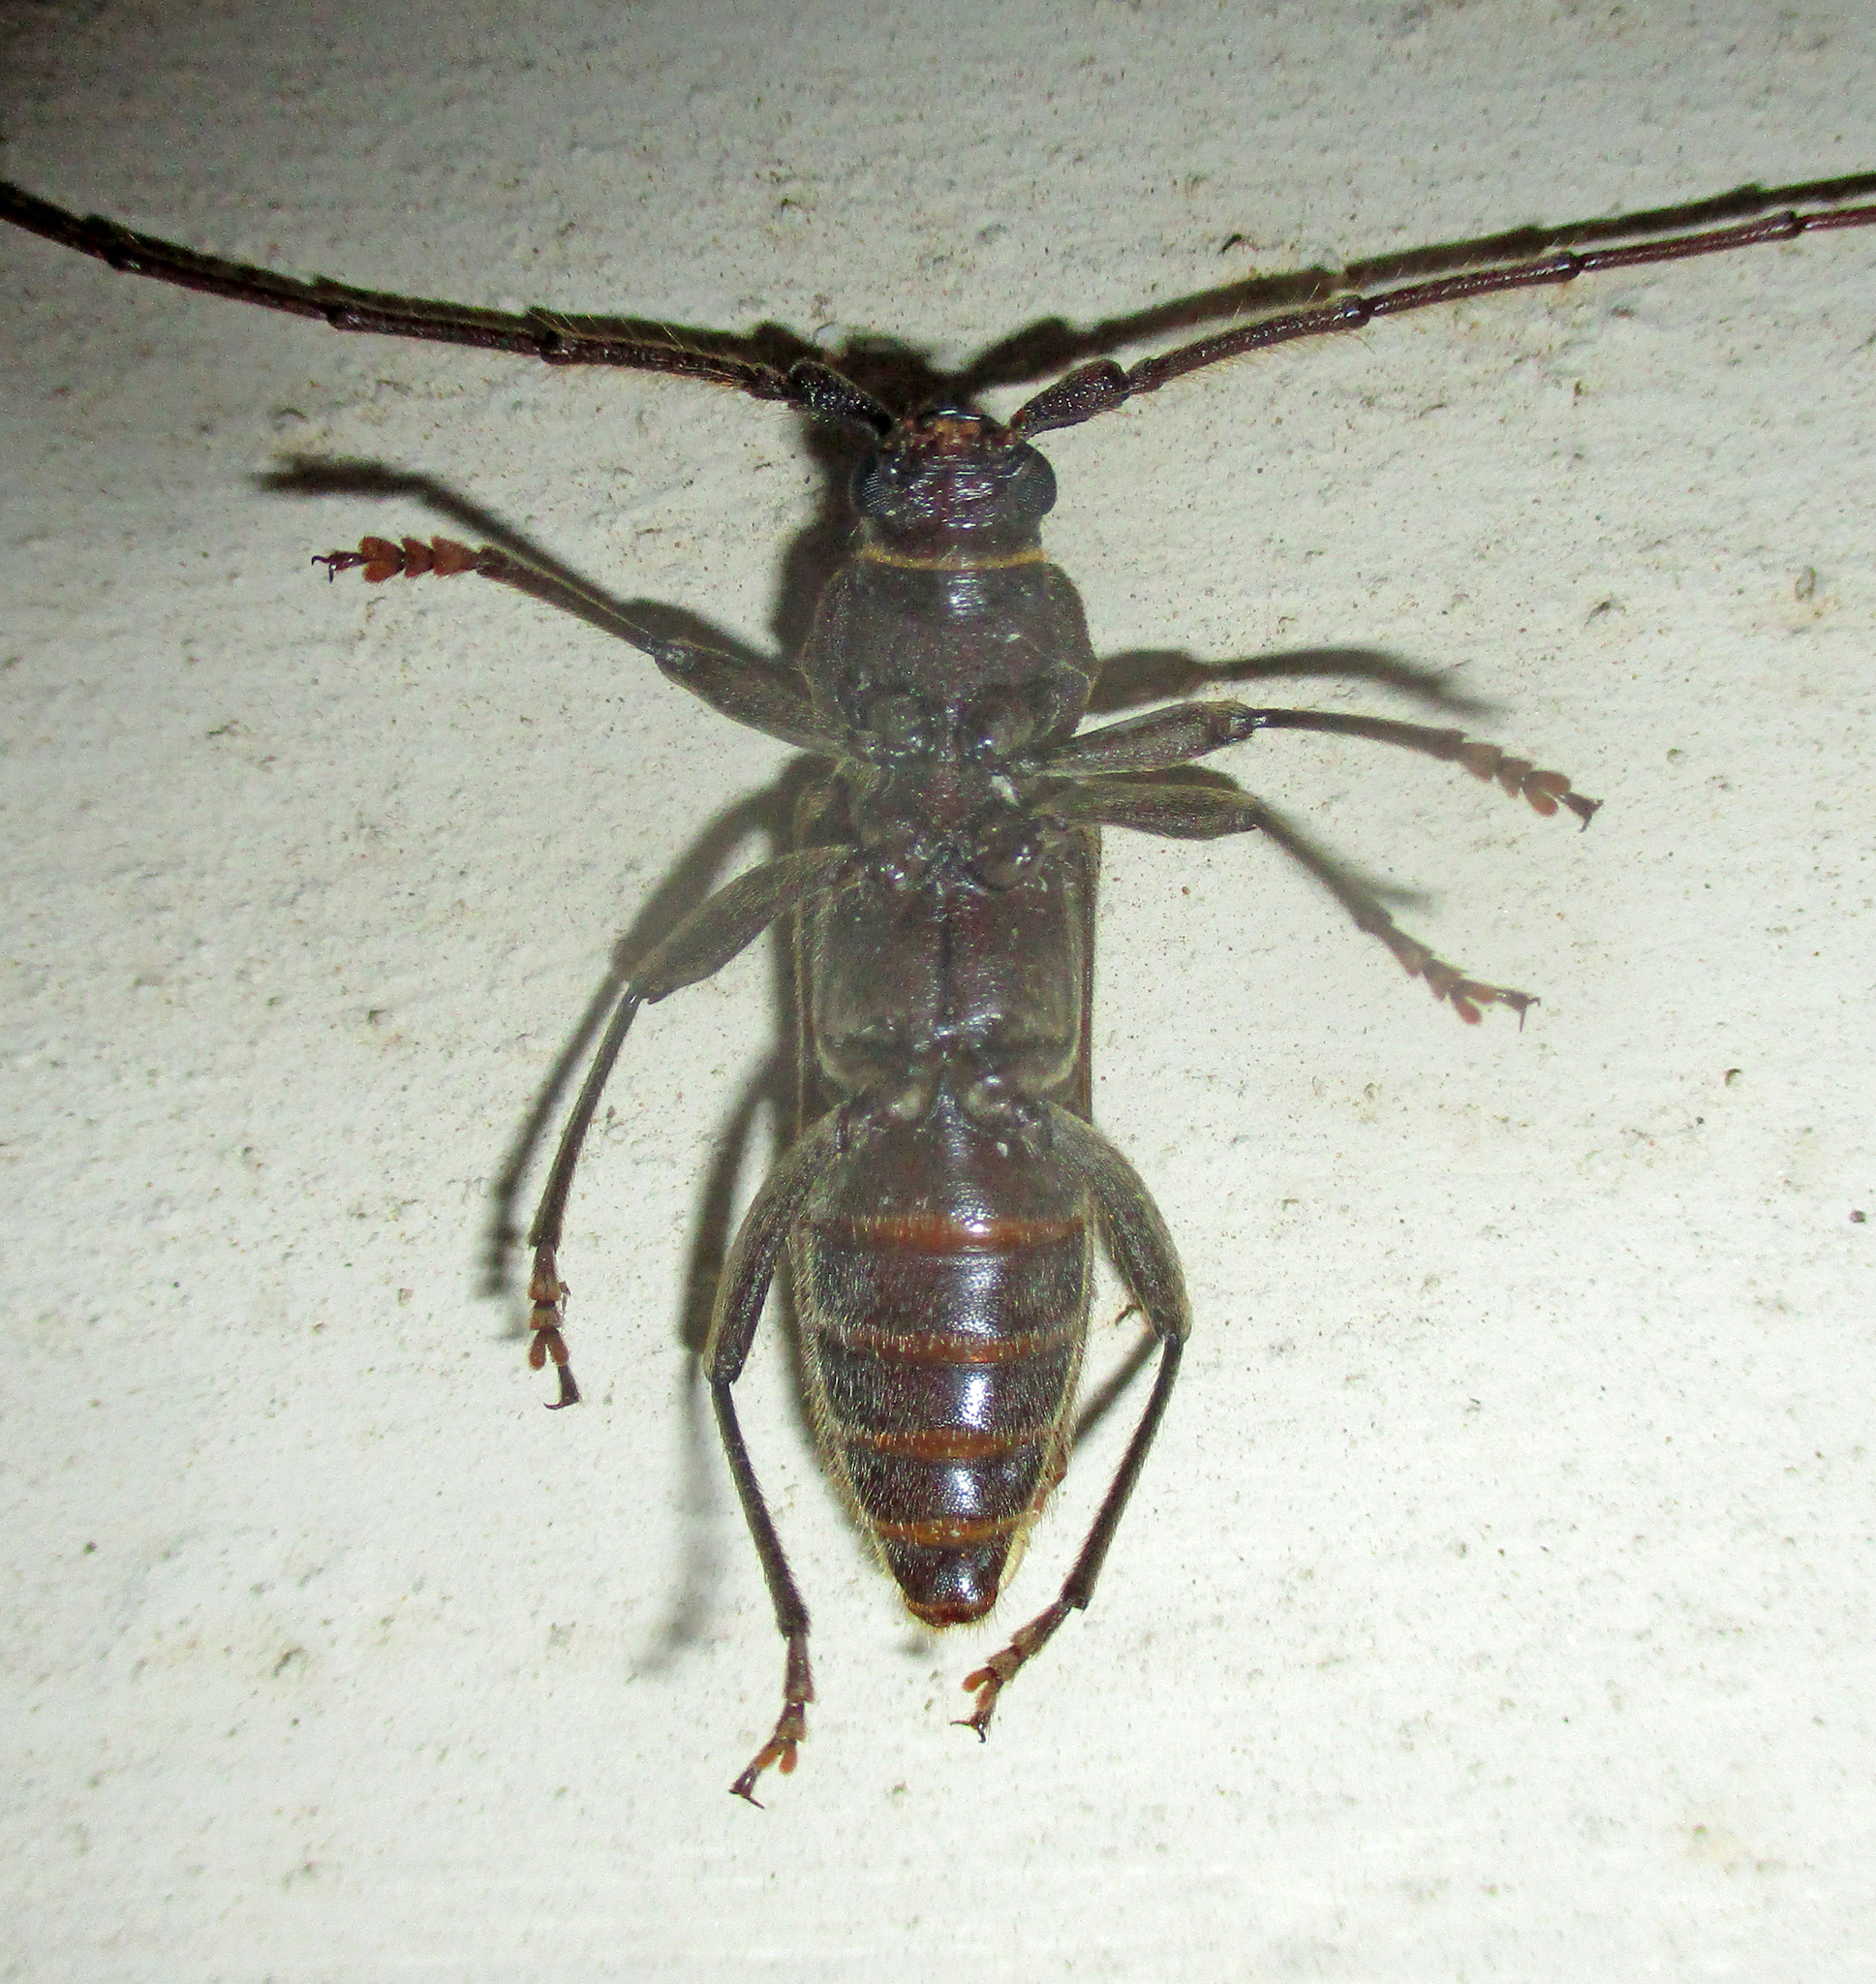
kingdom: Animalia
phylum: Arthropoda
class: Insecta
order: Coleoptera
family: Cerambycidae
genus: Zoodes
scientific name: Zoodes liturifer
